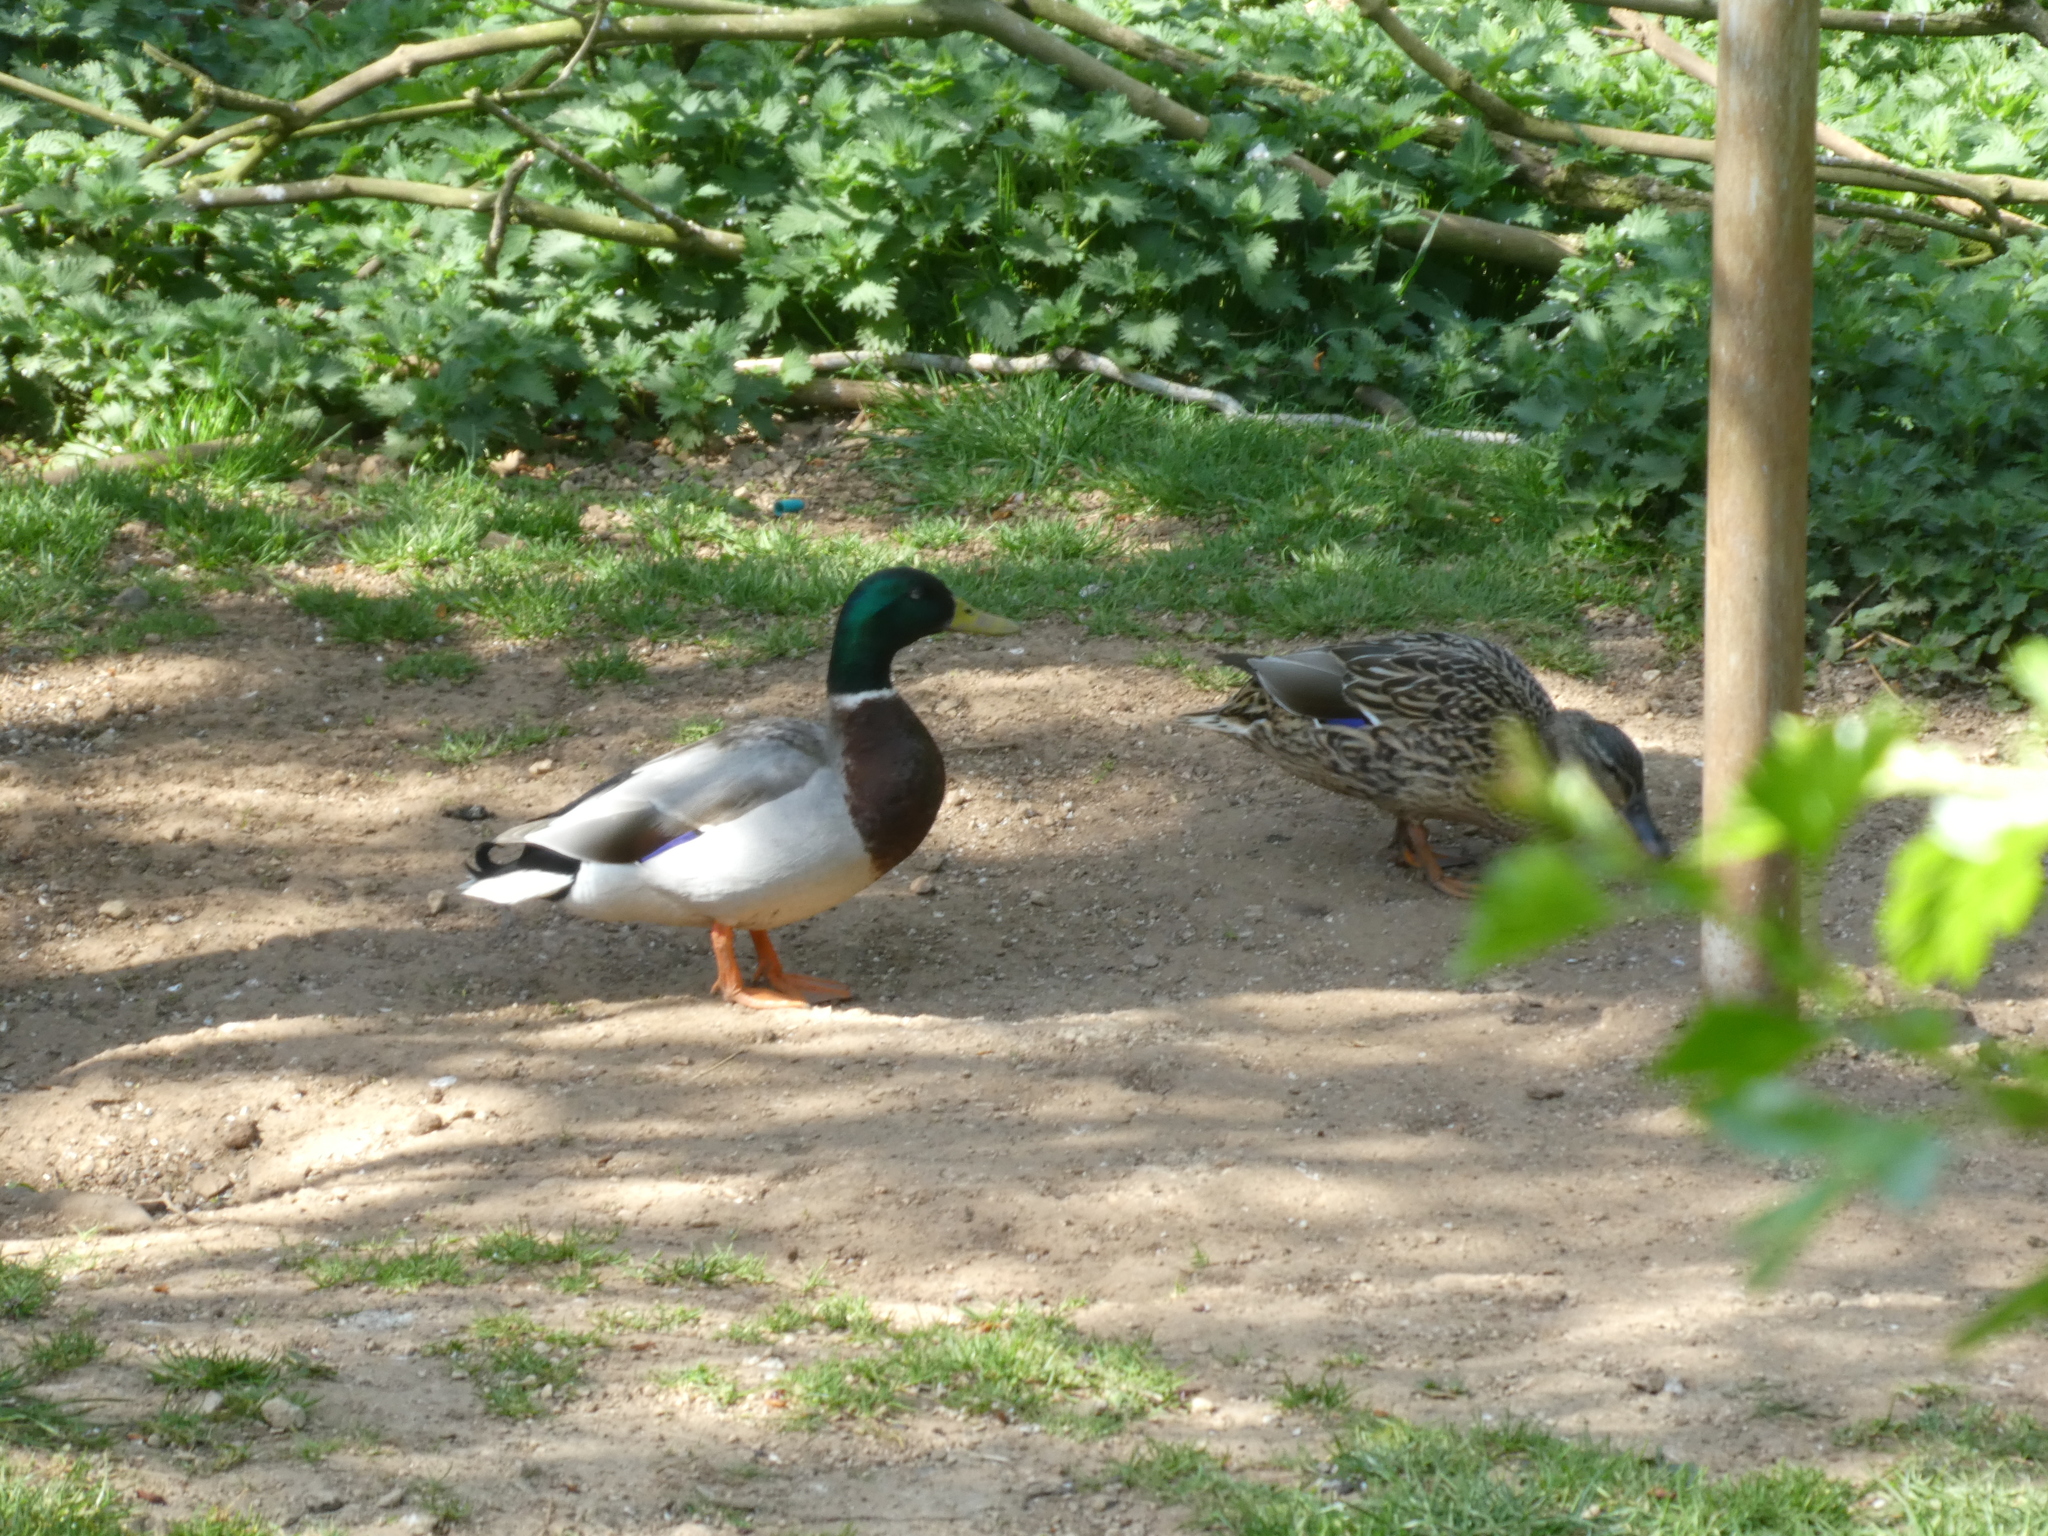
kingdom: Animalia
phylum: Chordata
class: Aves
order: Anseriformes
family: Anatidae
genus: Anas
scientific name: Anas platyrhynchos
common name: Mallard
